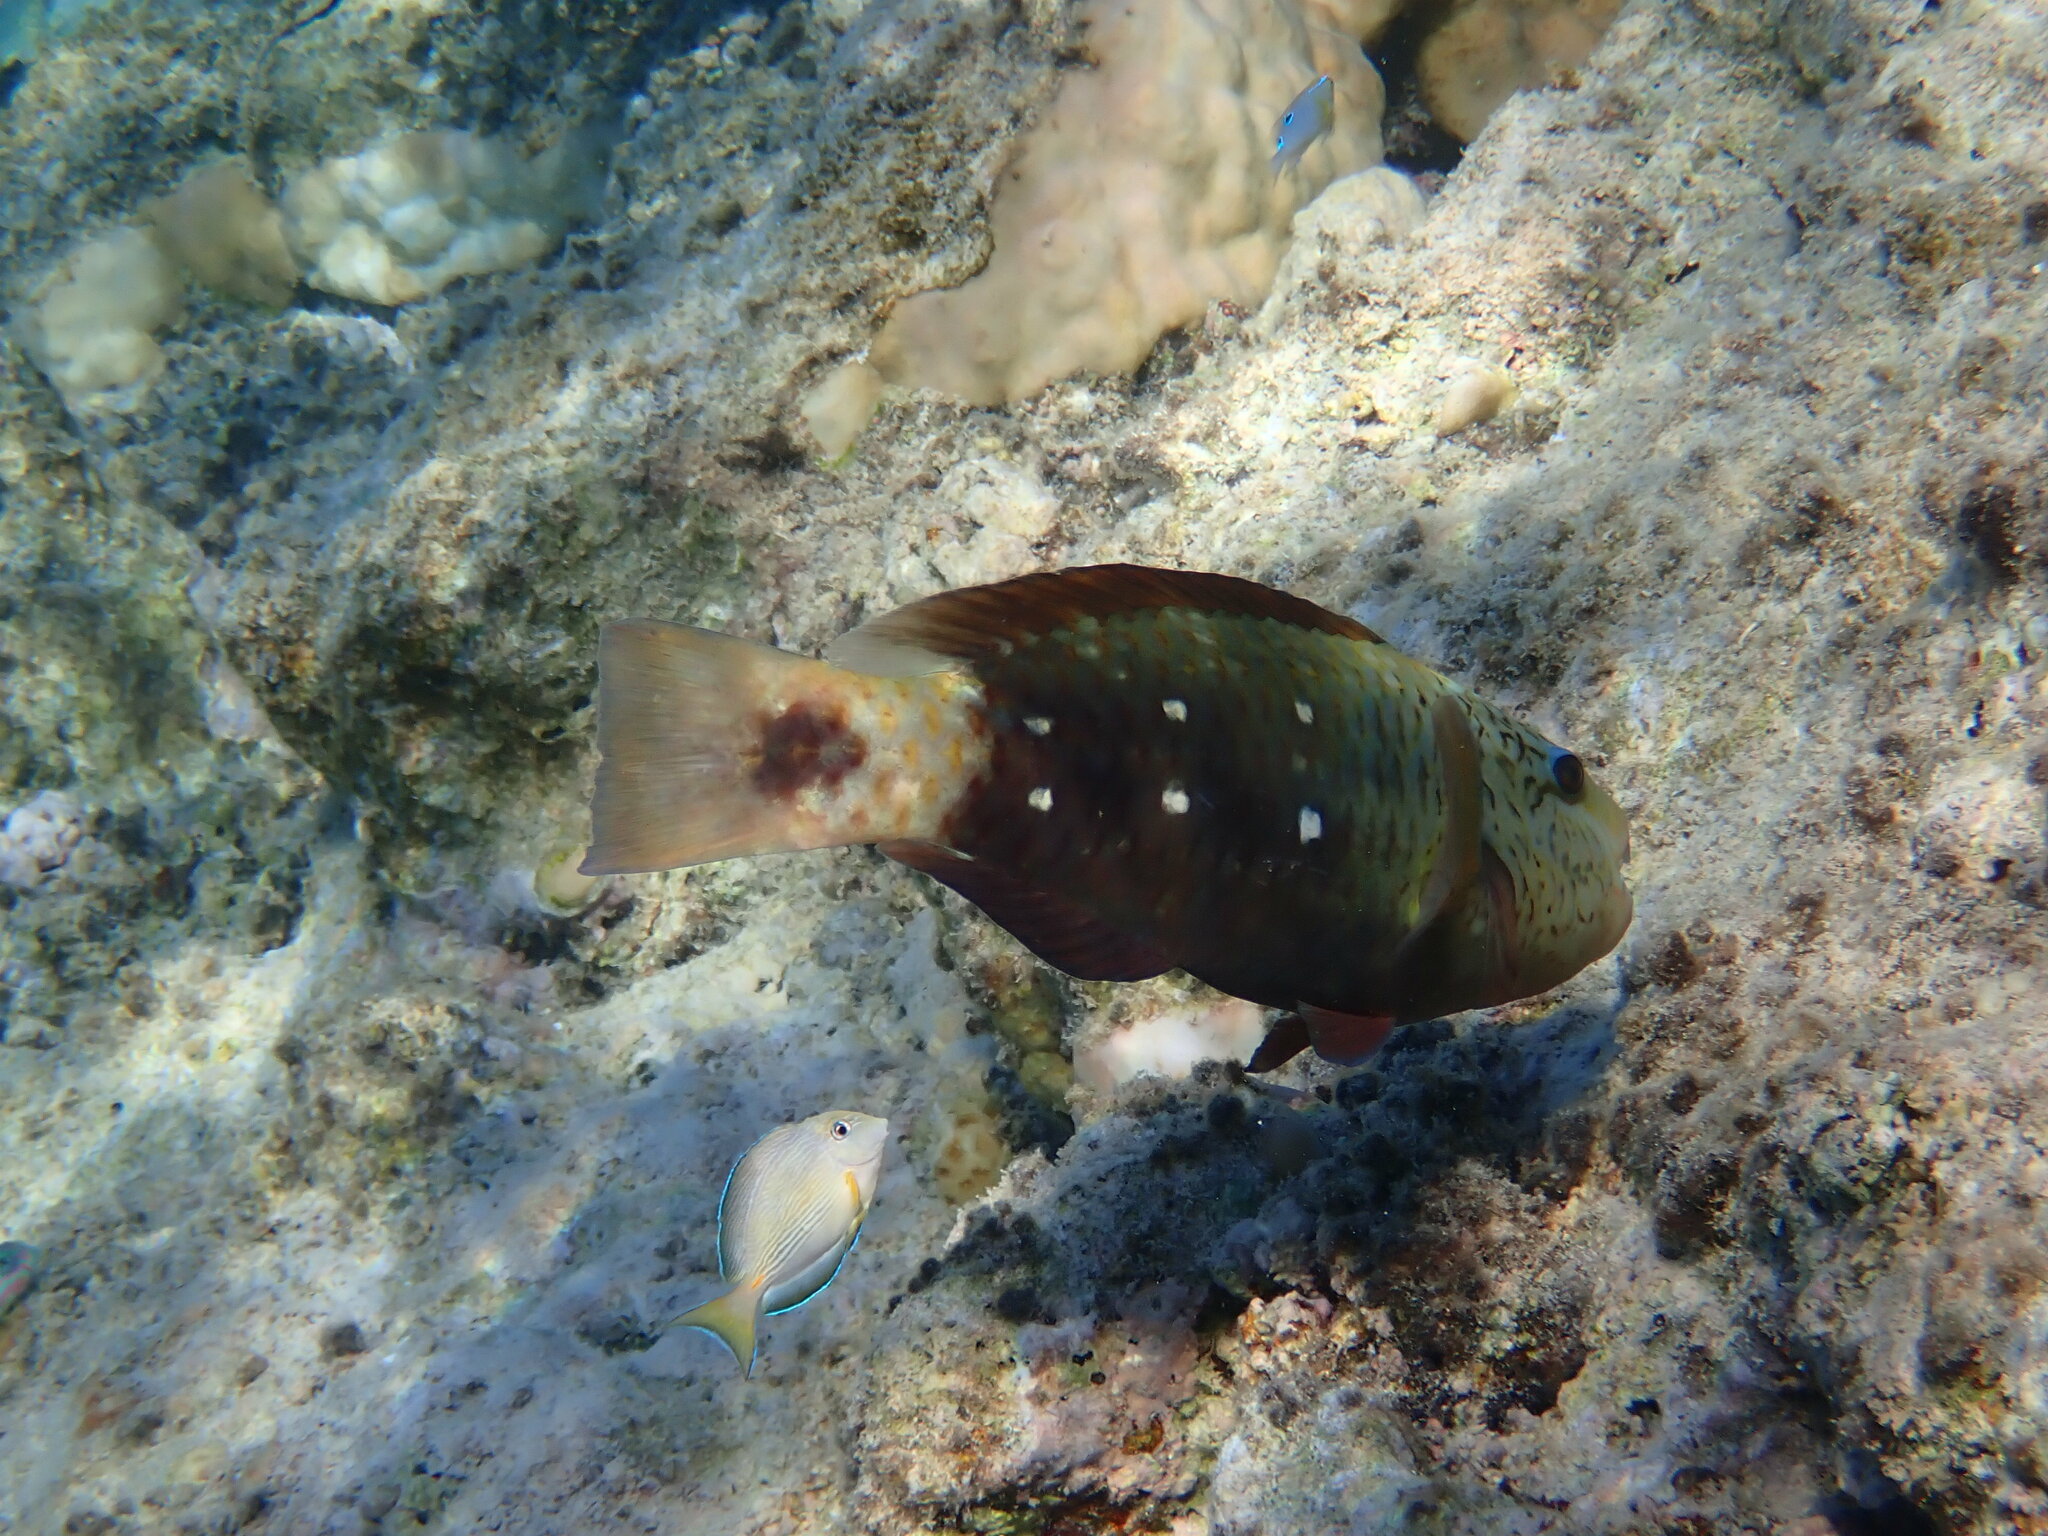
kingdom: Animalia
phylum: Chordata
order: Perciformes
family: Scaridae
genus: Chlorurus
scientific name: Chlorurus sordidus
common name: Bullethead parrotfish
